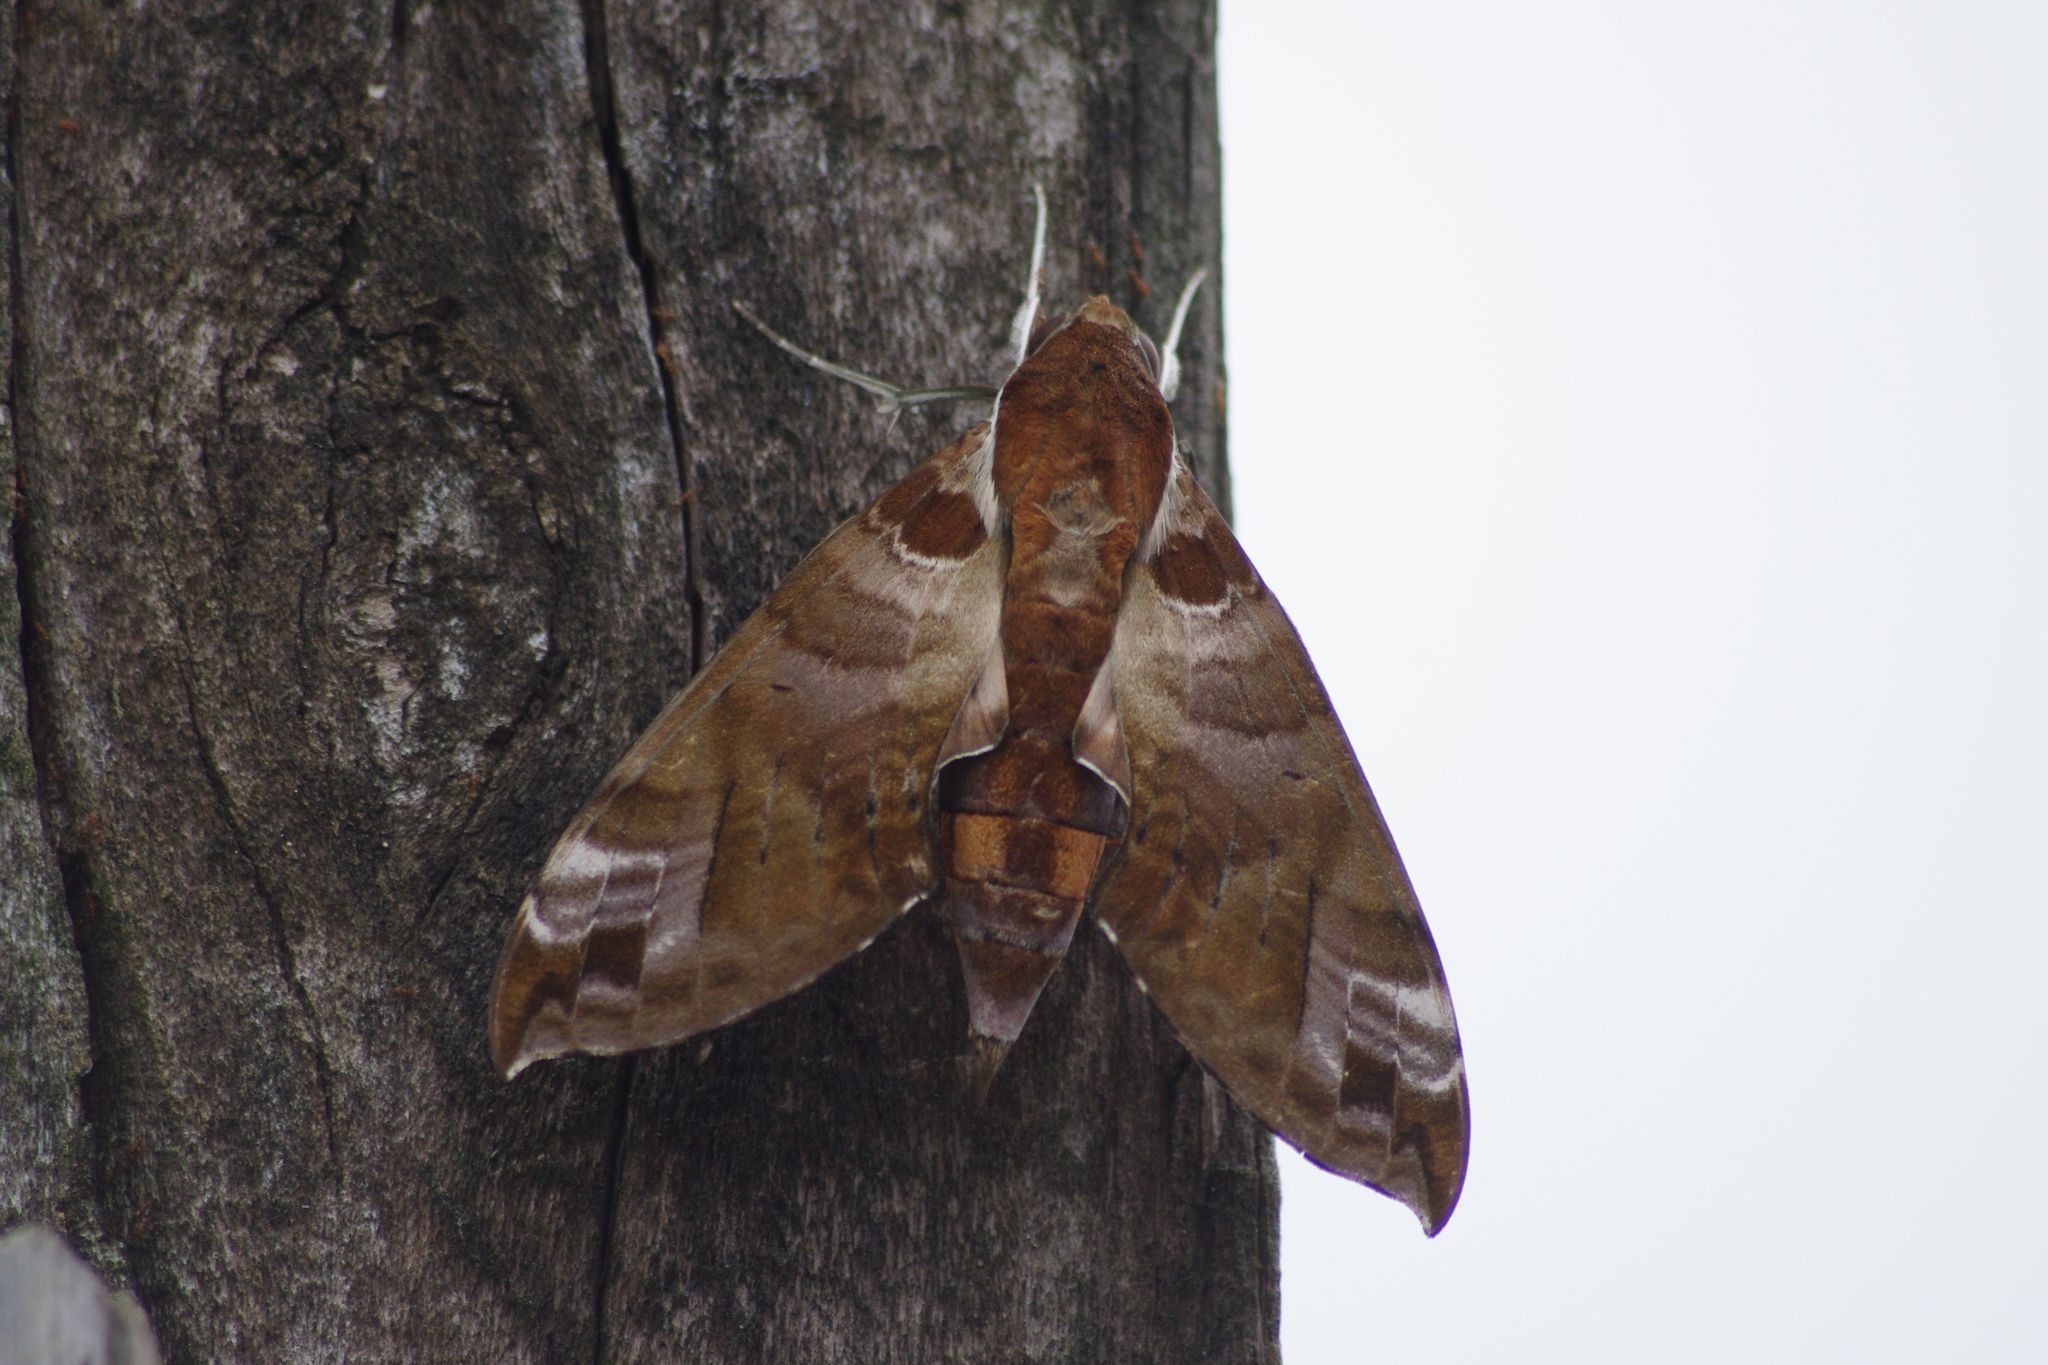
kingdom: Animalia
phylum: Arthropoda
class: Insecta
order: Lepidoptera
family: Sphingidae
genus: Cechenena
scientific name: Cechenena helops
